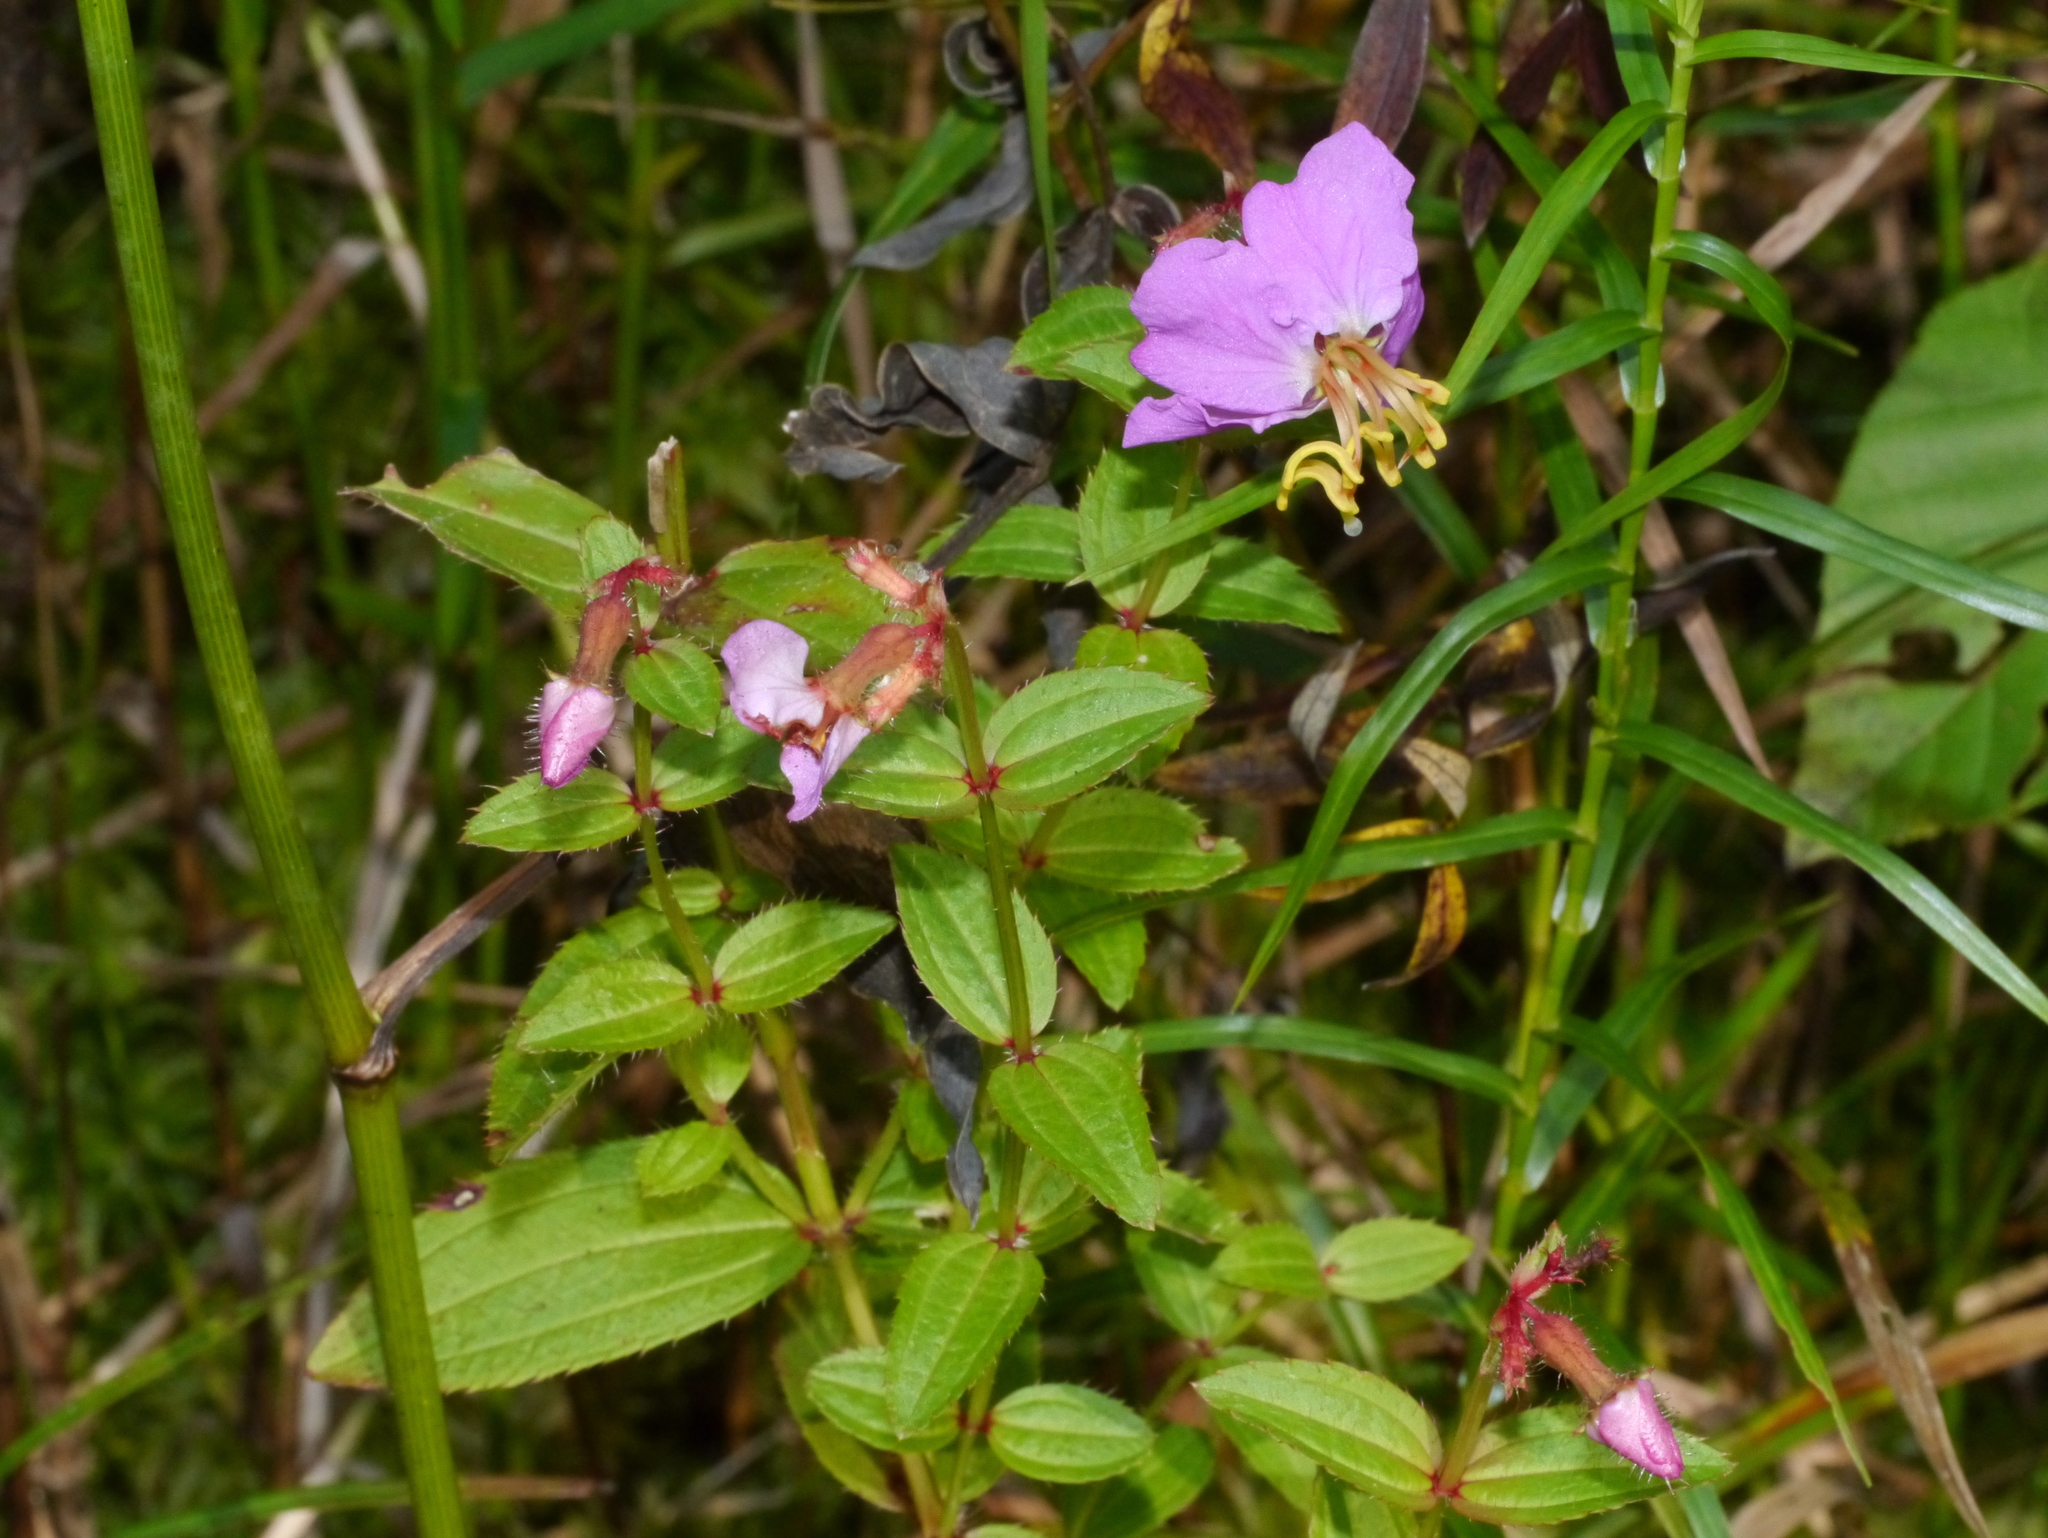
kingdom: Plantae
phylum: Tracheophyta
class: Magnoliopsida
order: Myrtales
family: Melastomataceae
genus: Rhexia
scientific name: Rhexia virginica
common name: Common meadow beauty
